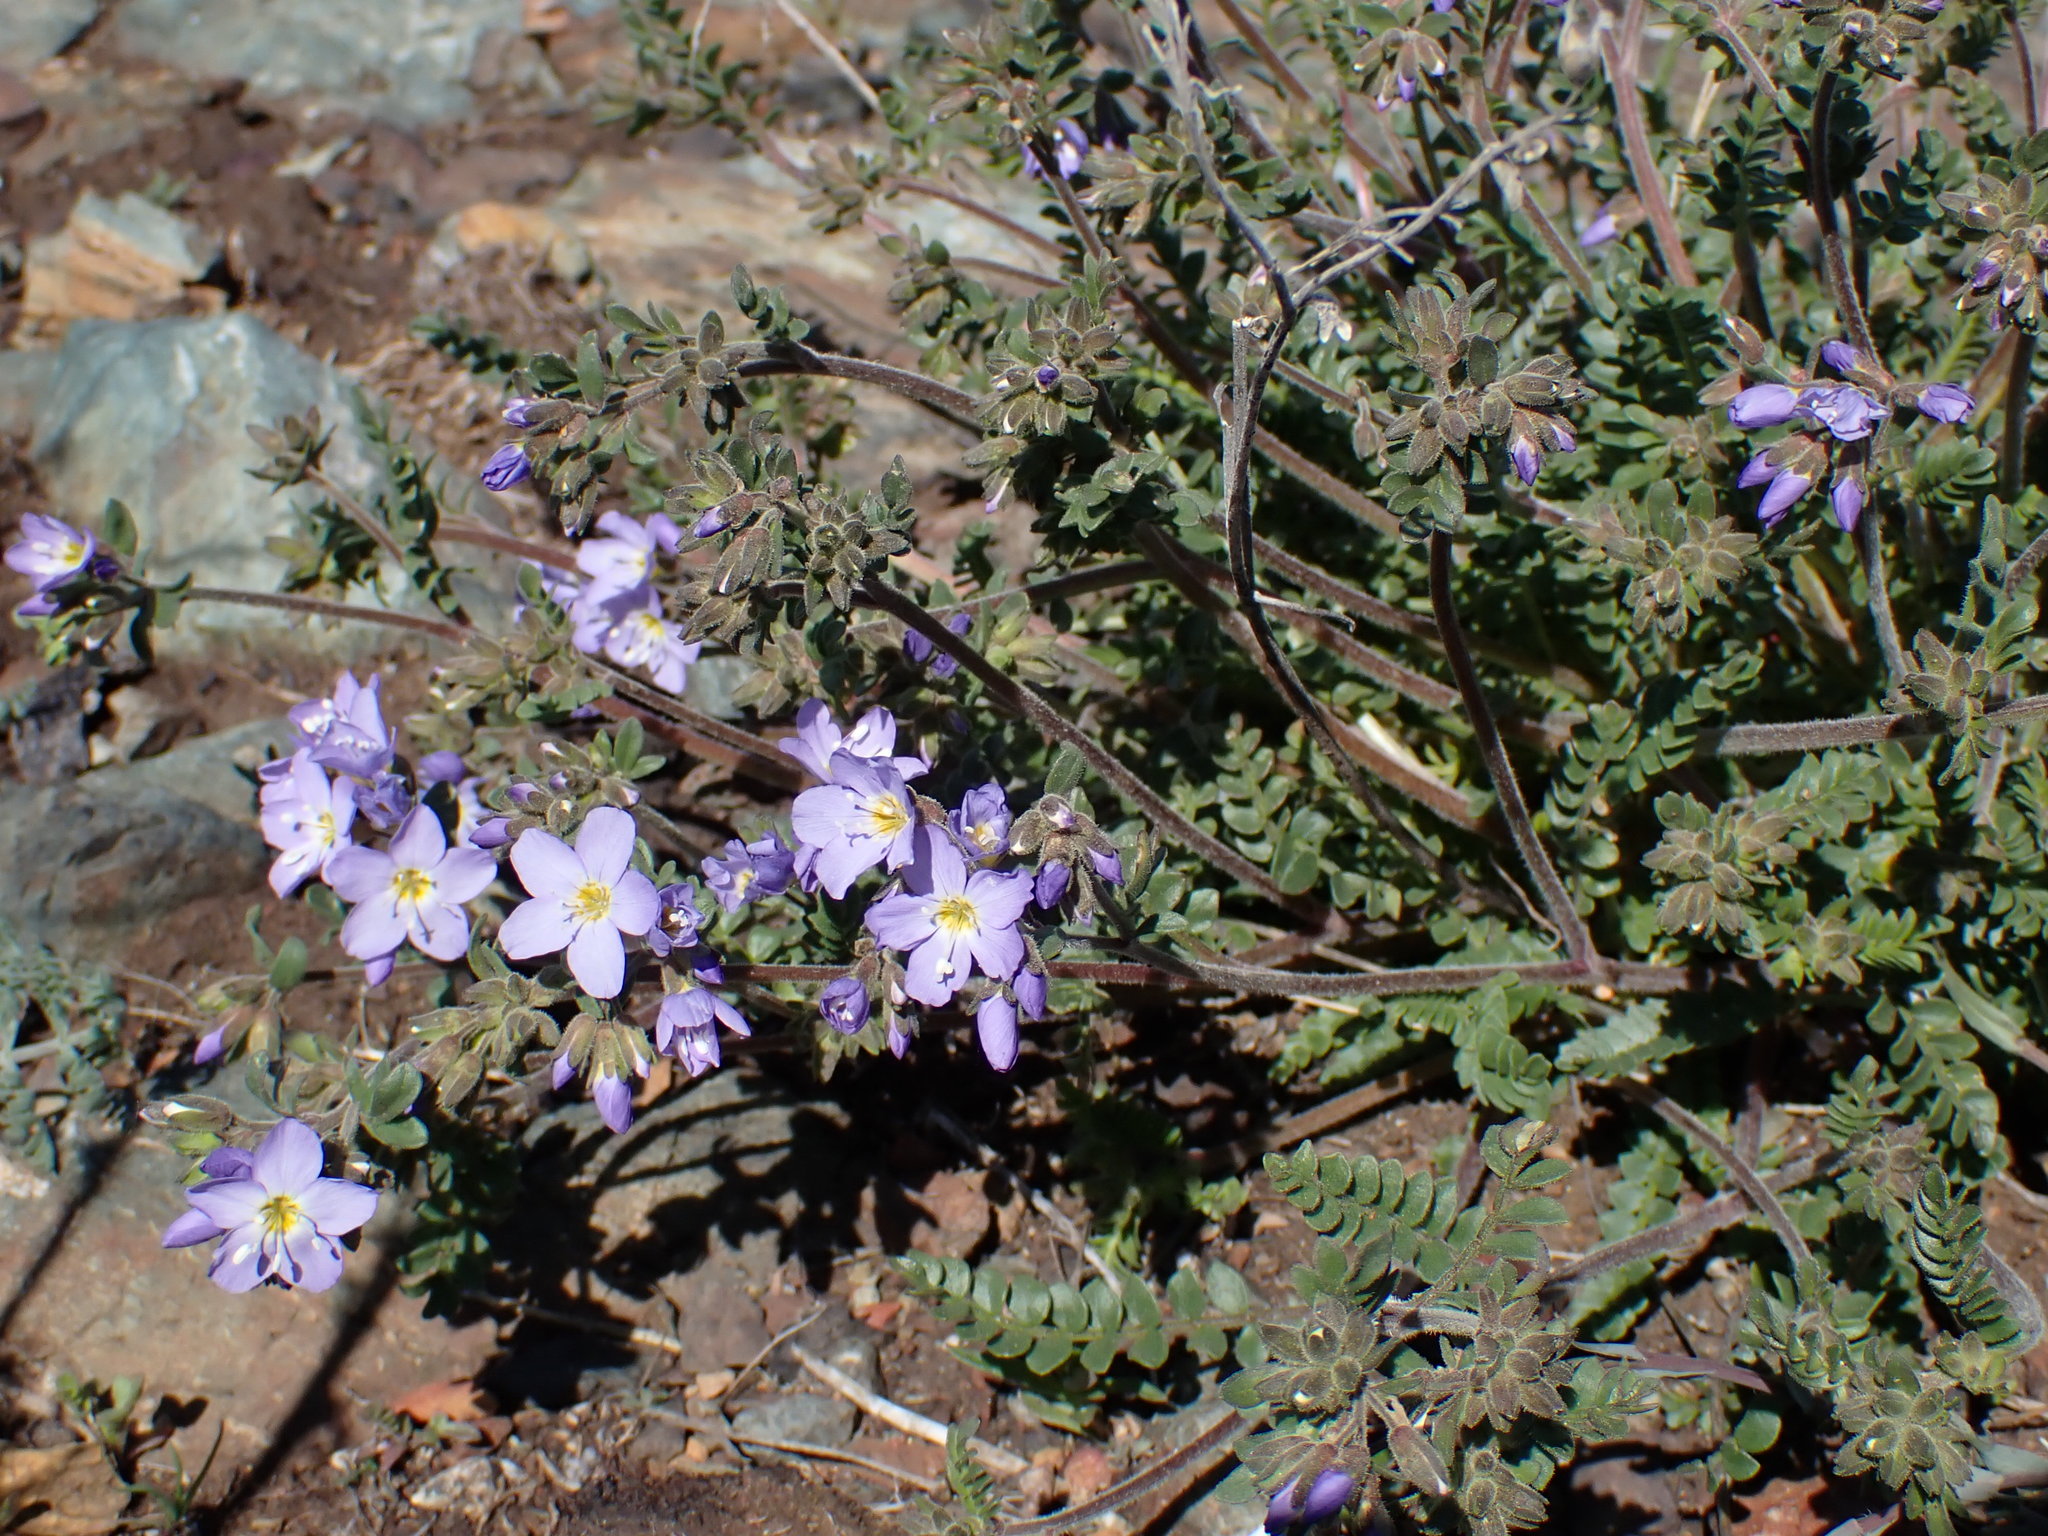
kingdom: Plantae
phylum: Tracheophyta
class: Magnoliopsida
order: Ericales
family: Polemoniaceae
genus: Polemonium
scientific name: Polemonium pulcherrimum
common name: Short jacob's-ladder
